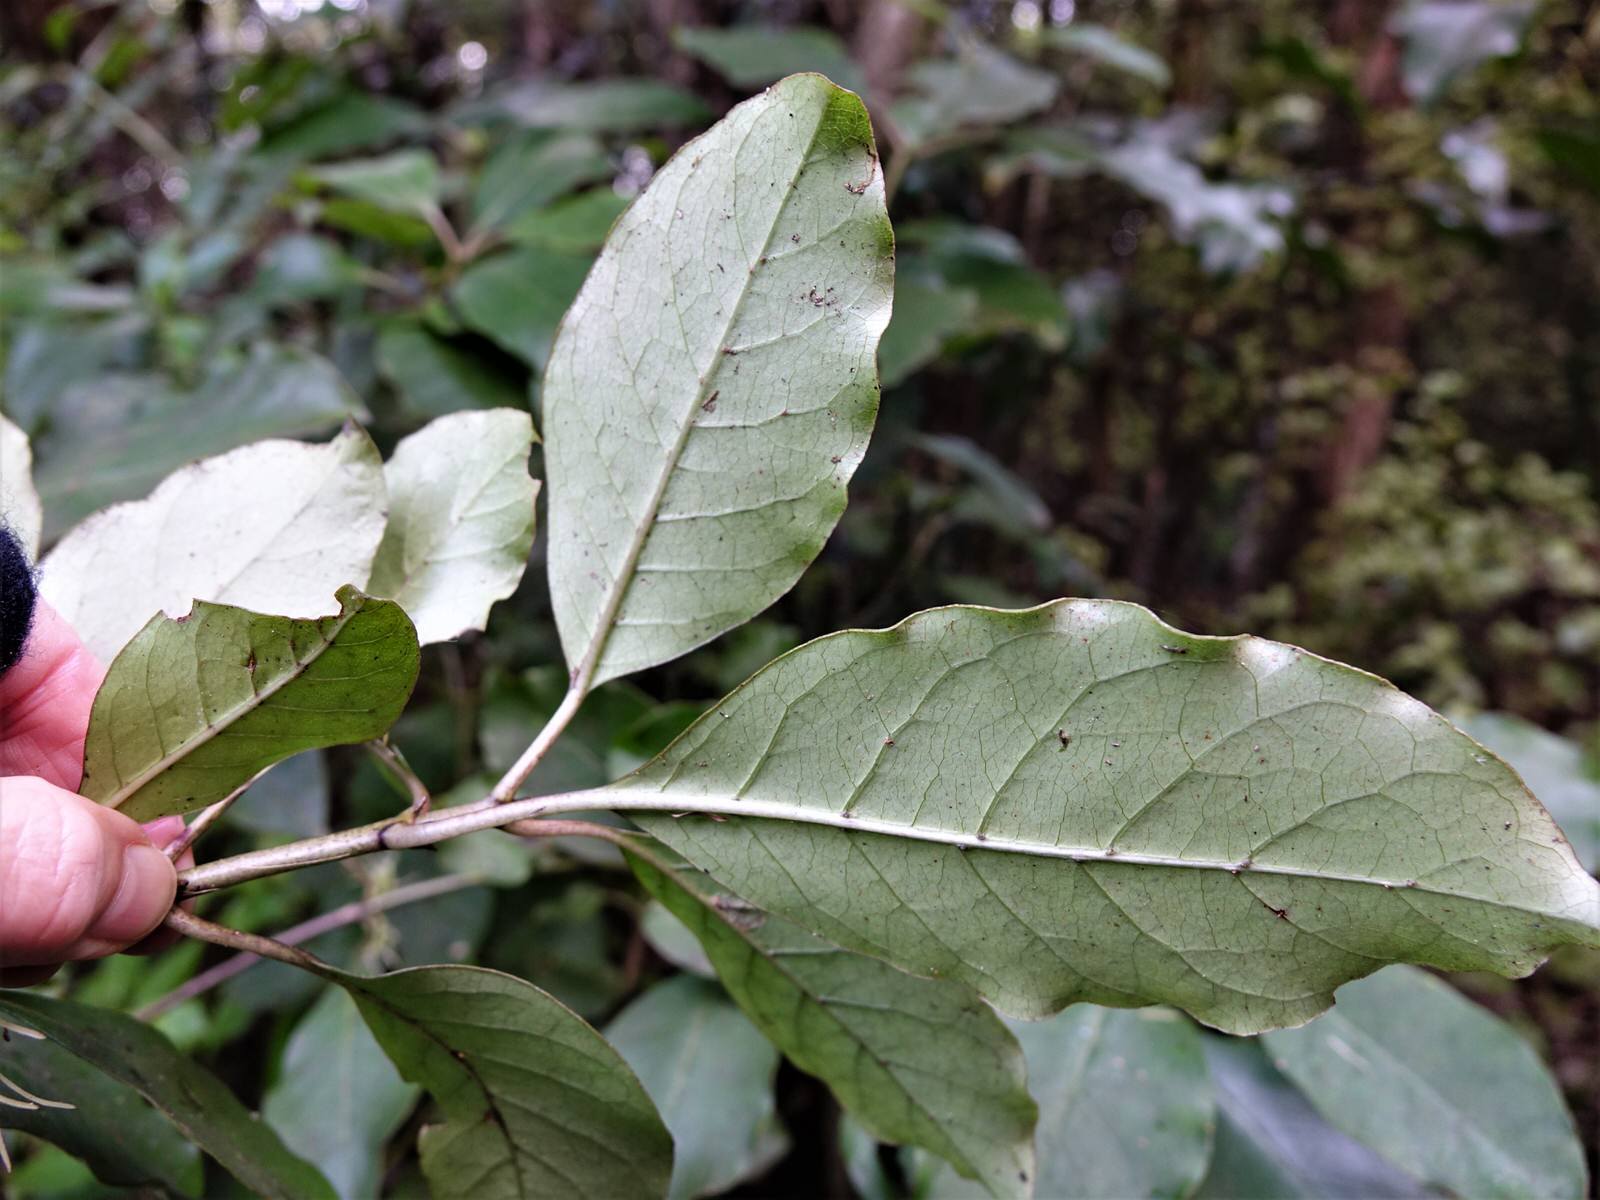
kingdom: Plantae
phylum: Tracheophyta
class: Magnoliopsida
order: Gentianales
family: Rubiaceae
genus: Coprosma
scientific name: Coprosma autumnalis
